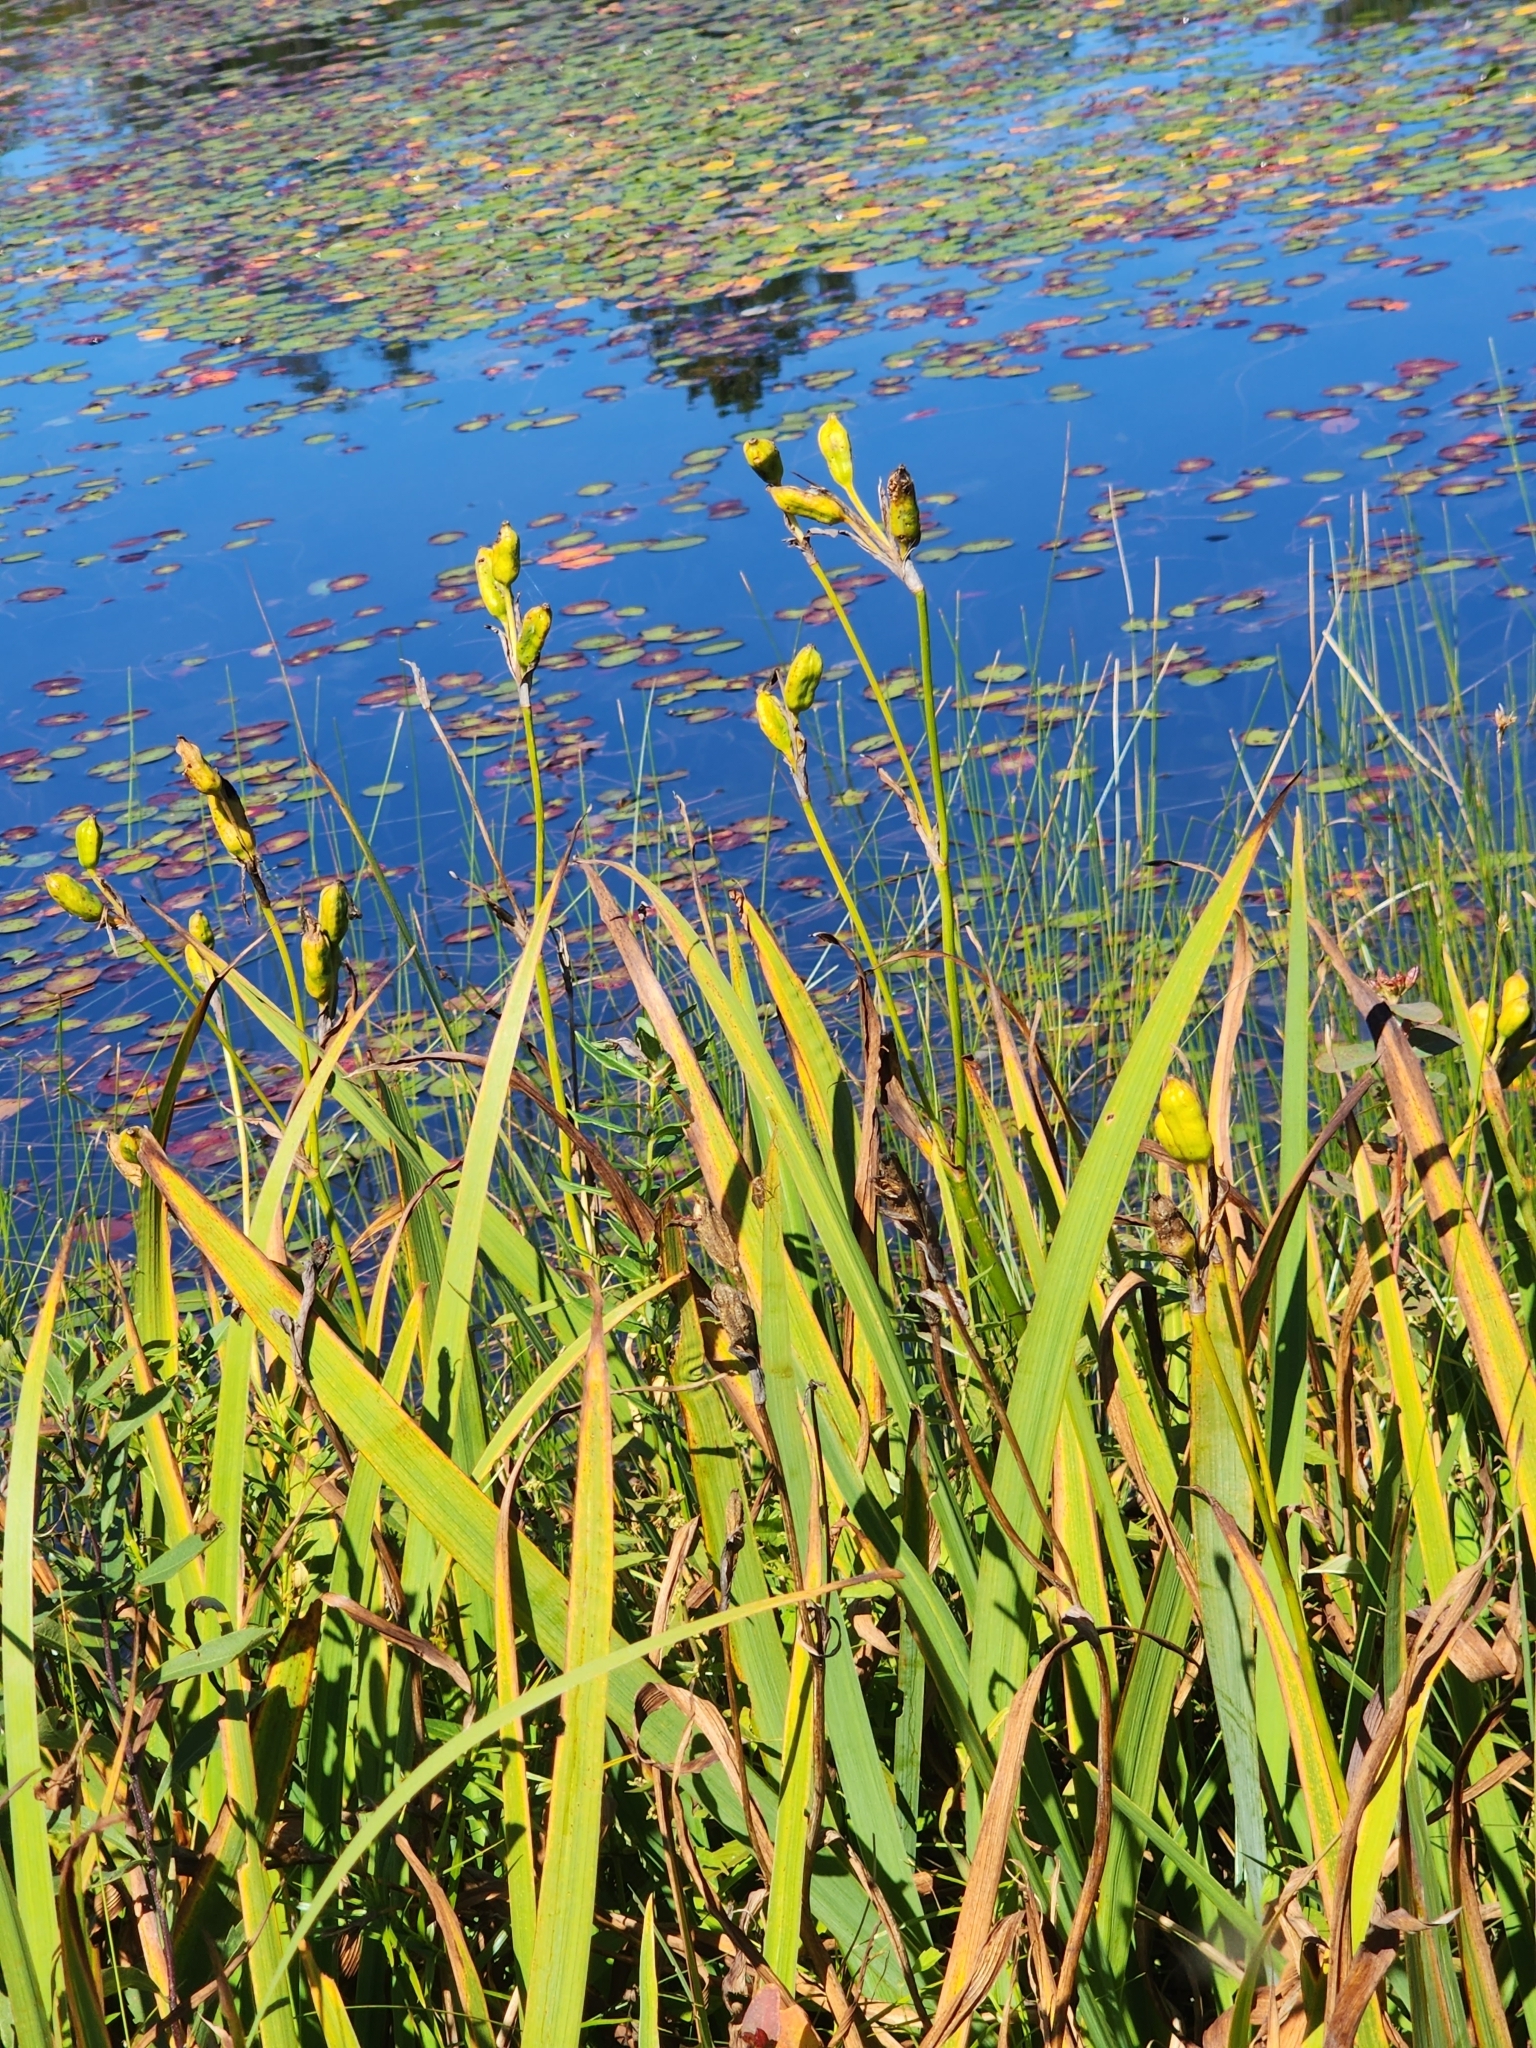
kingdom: Plantae
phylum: Tracheophyta
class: Liliopsida
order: Asparagales
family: Iridaceae
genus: Iris
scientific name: Iris versicolor
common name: Purple iris
